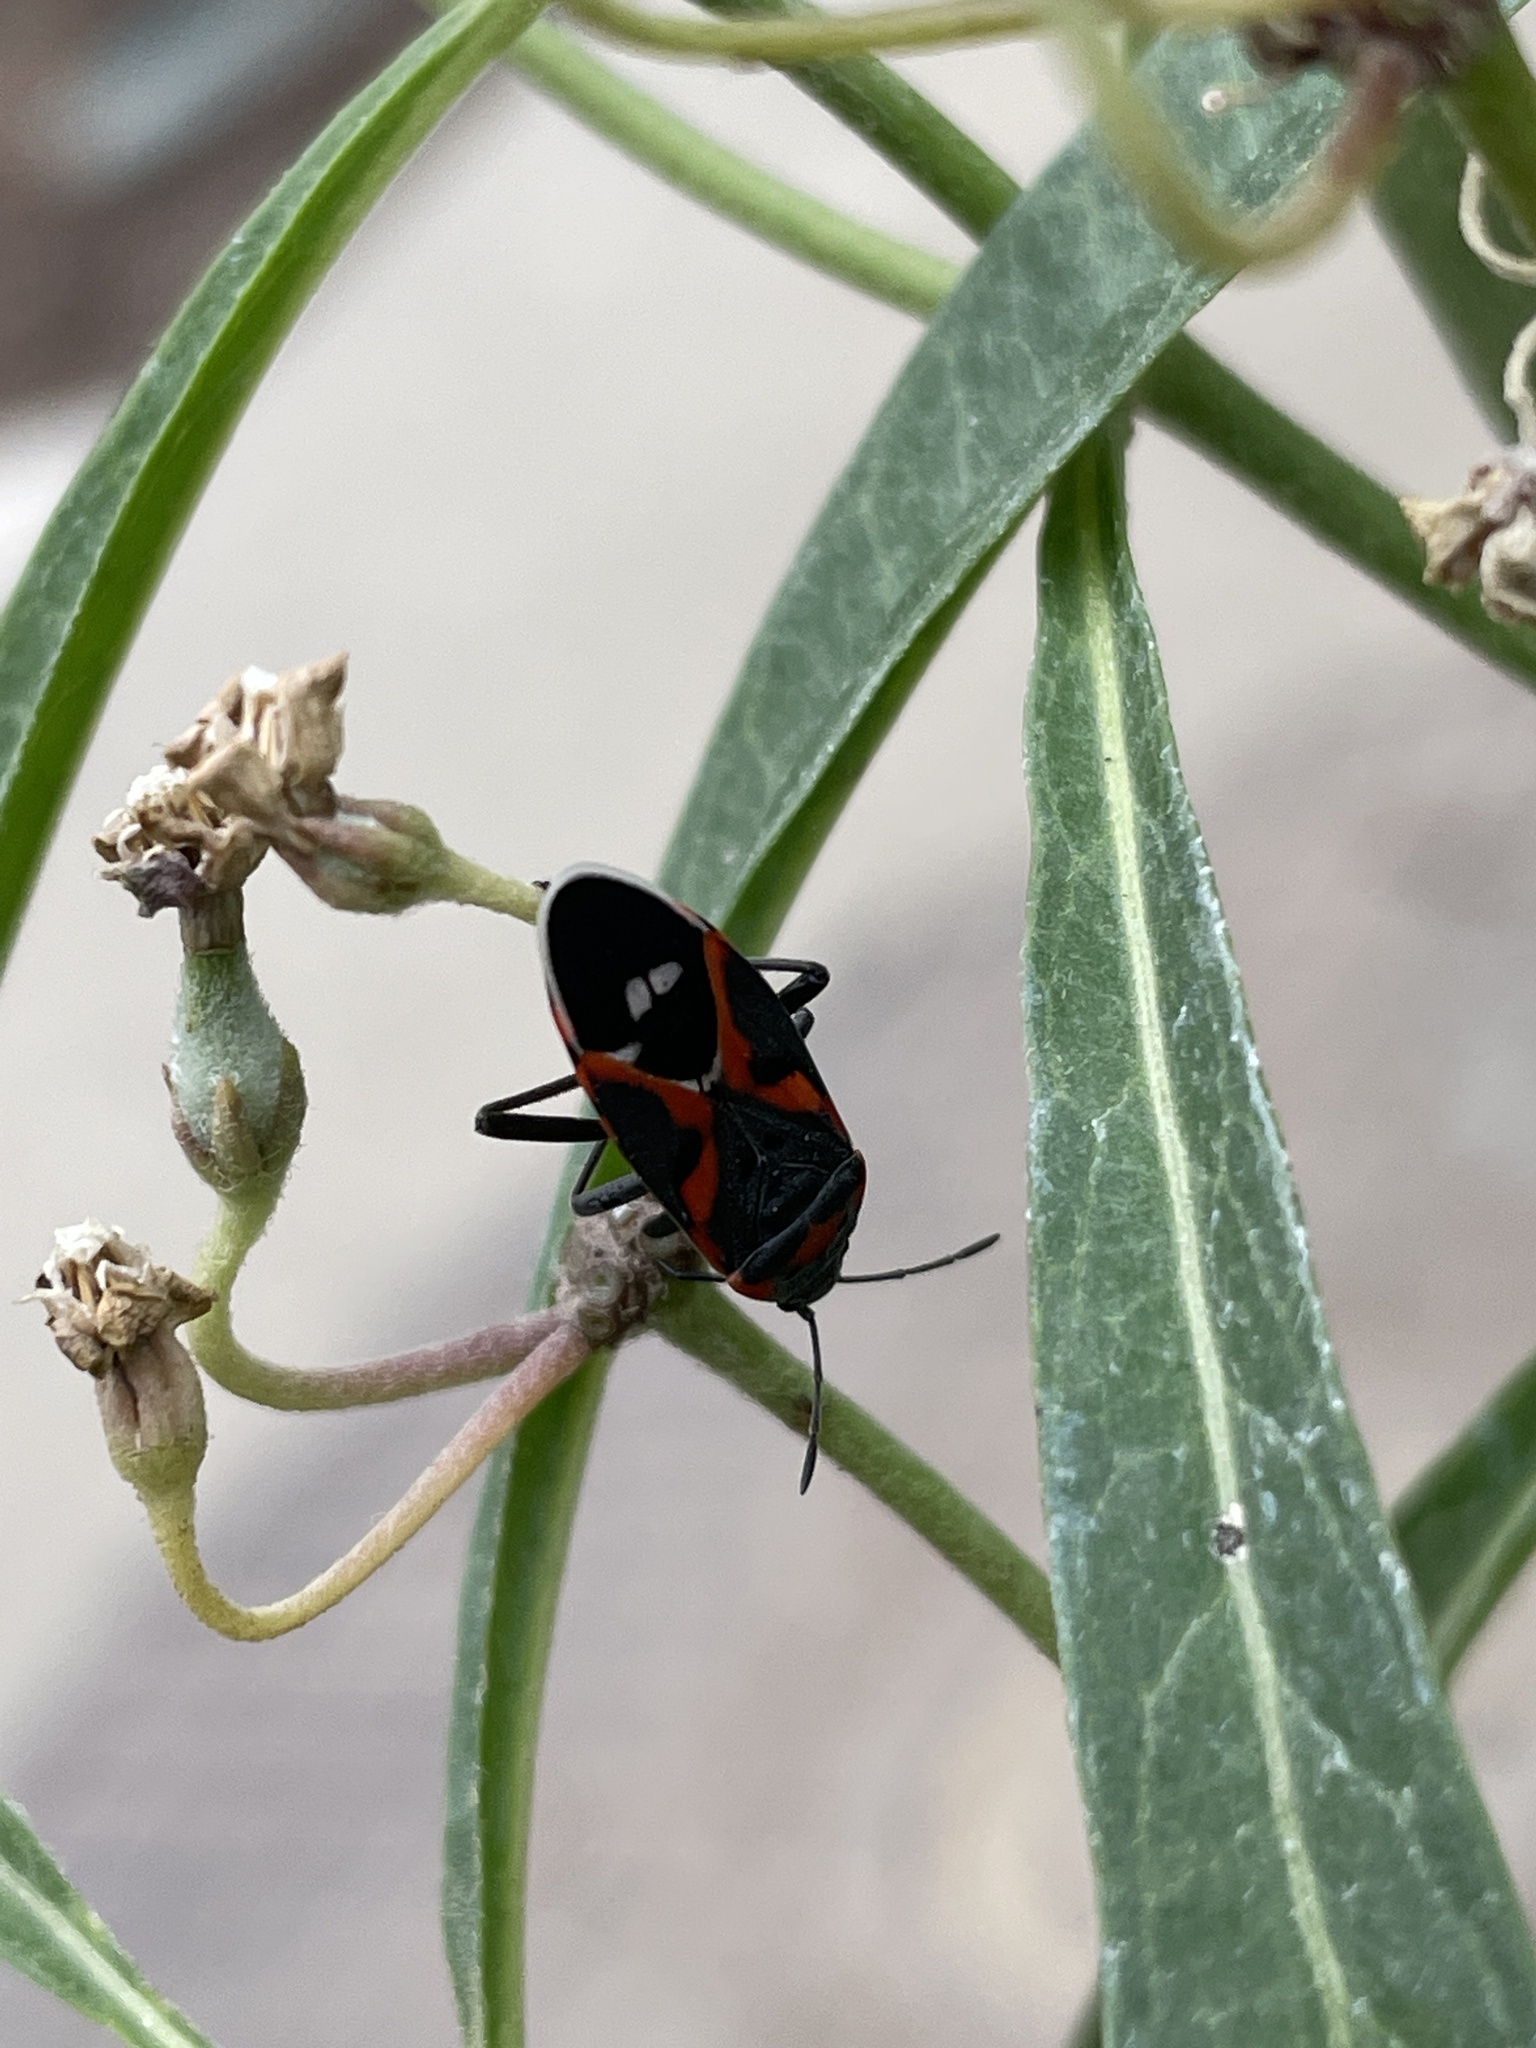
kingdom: Animalia
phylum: Arthropoda
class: Insecta
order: Hemiptera
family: Lygaeidae
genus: Lygaeus
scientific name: Lygaeus kalmii
